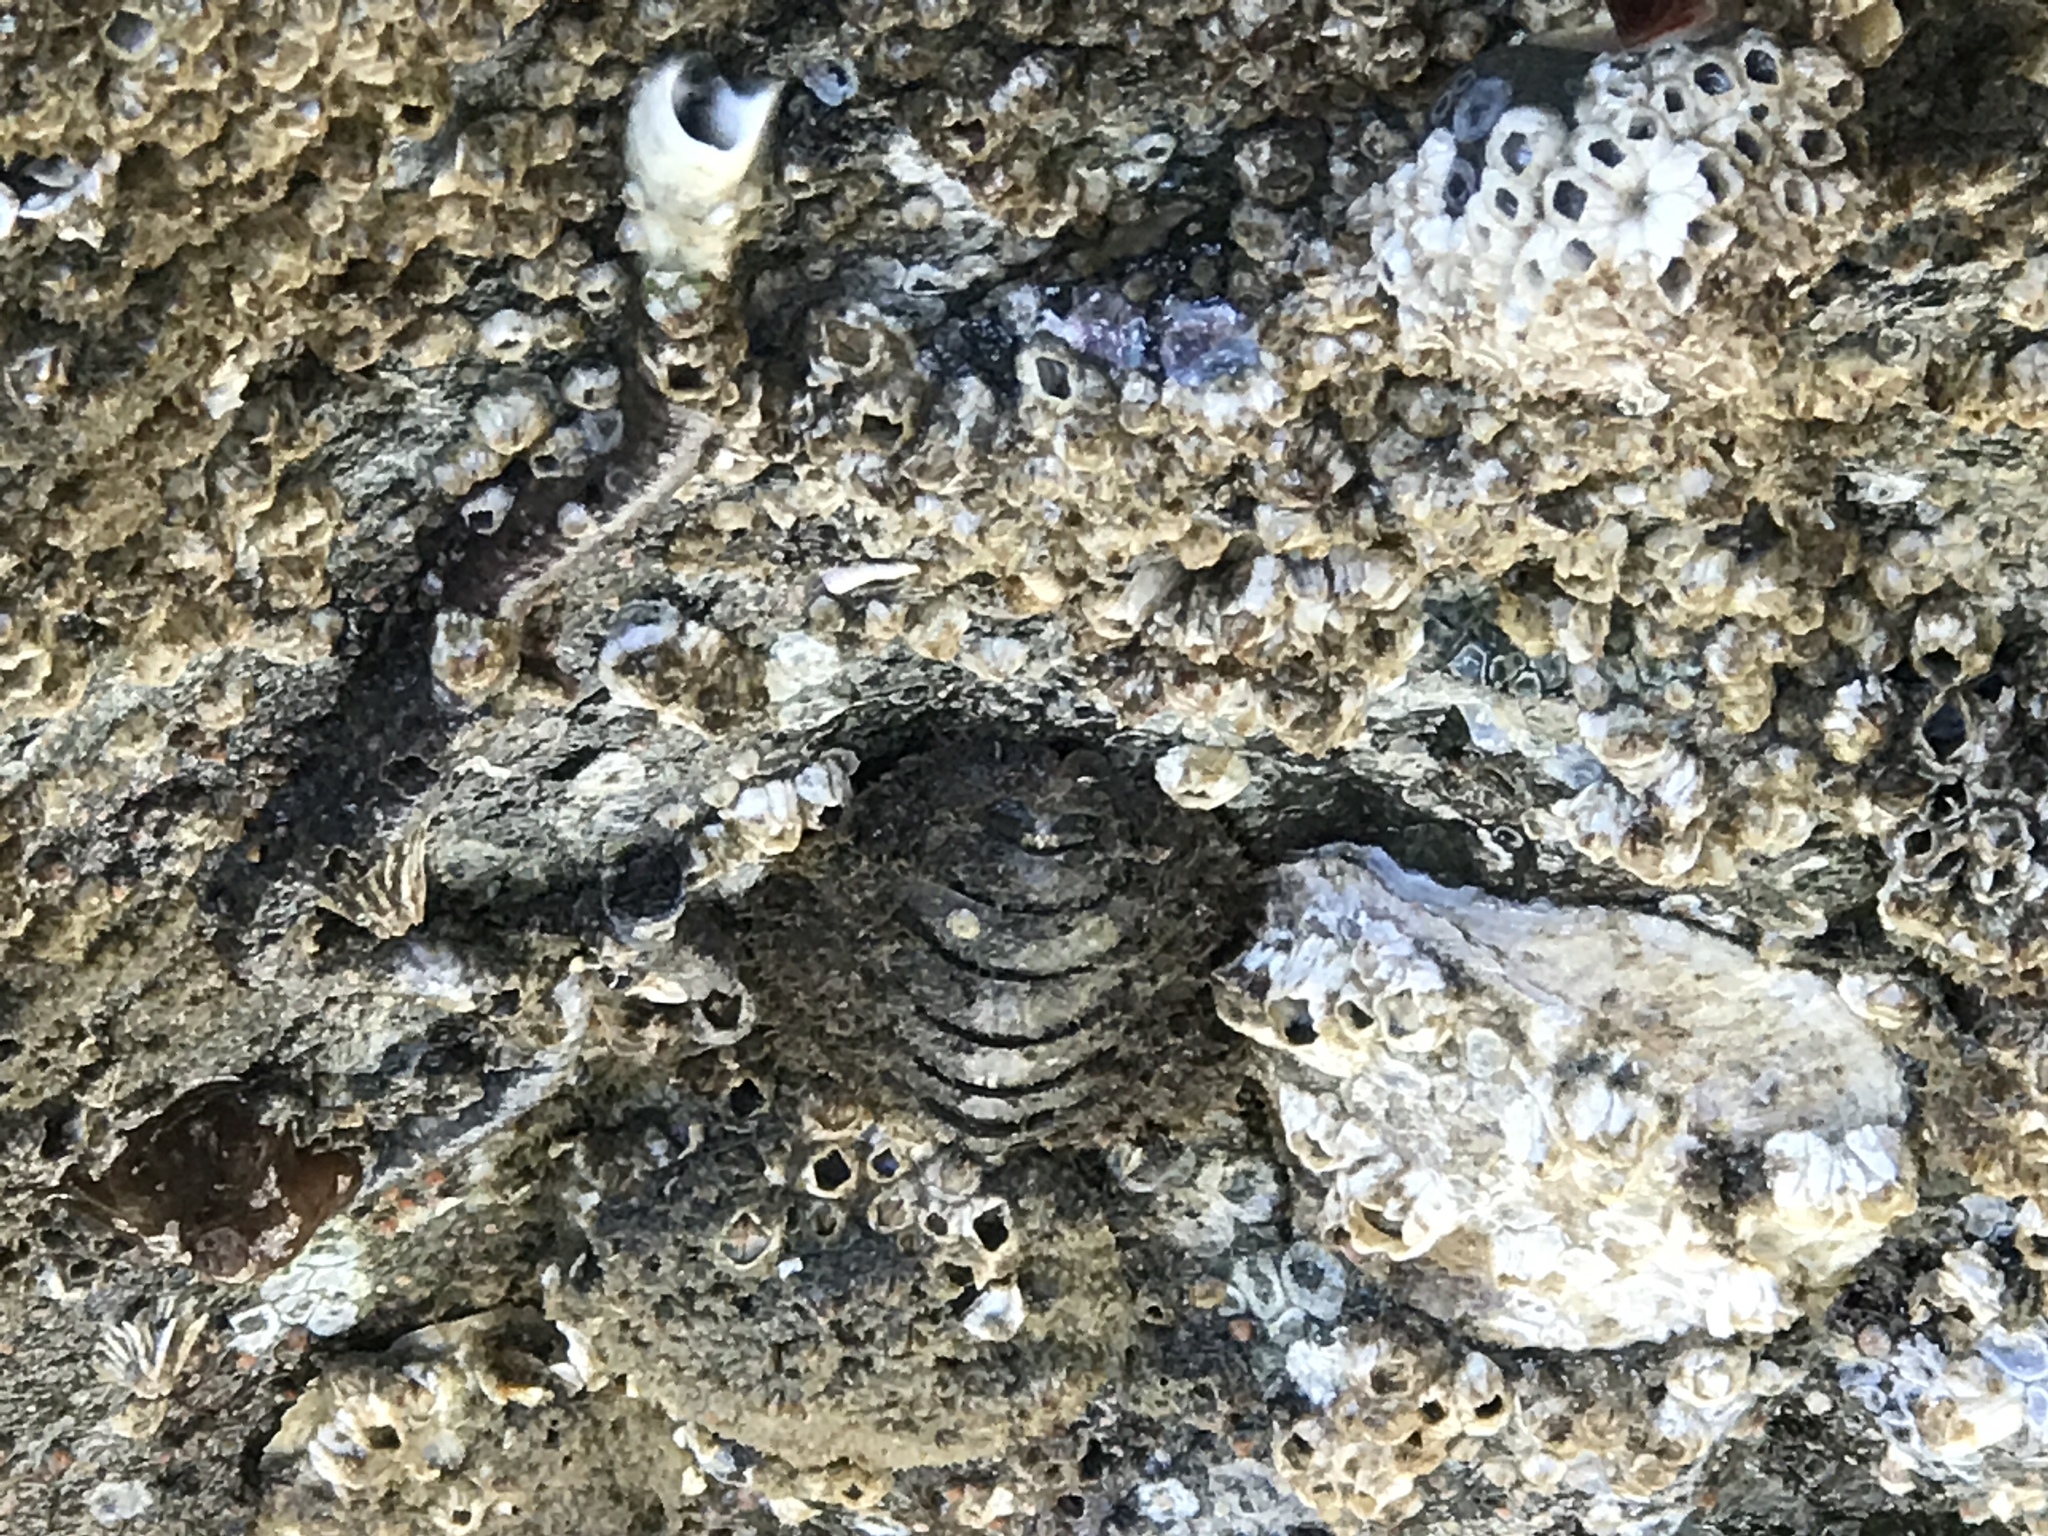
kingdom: Animalia
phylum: Mollusca
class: Polyplacophora
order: Chitonida
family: Mopaliidae
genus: Mopalia
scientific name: Mopalia muscosa
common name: Mossy chiton
